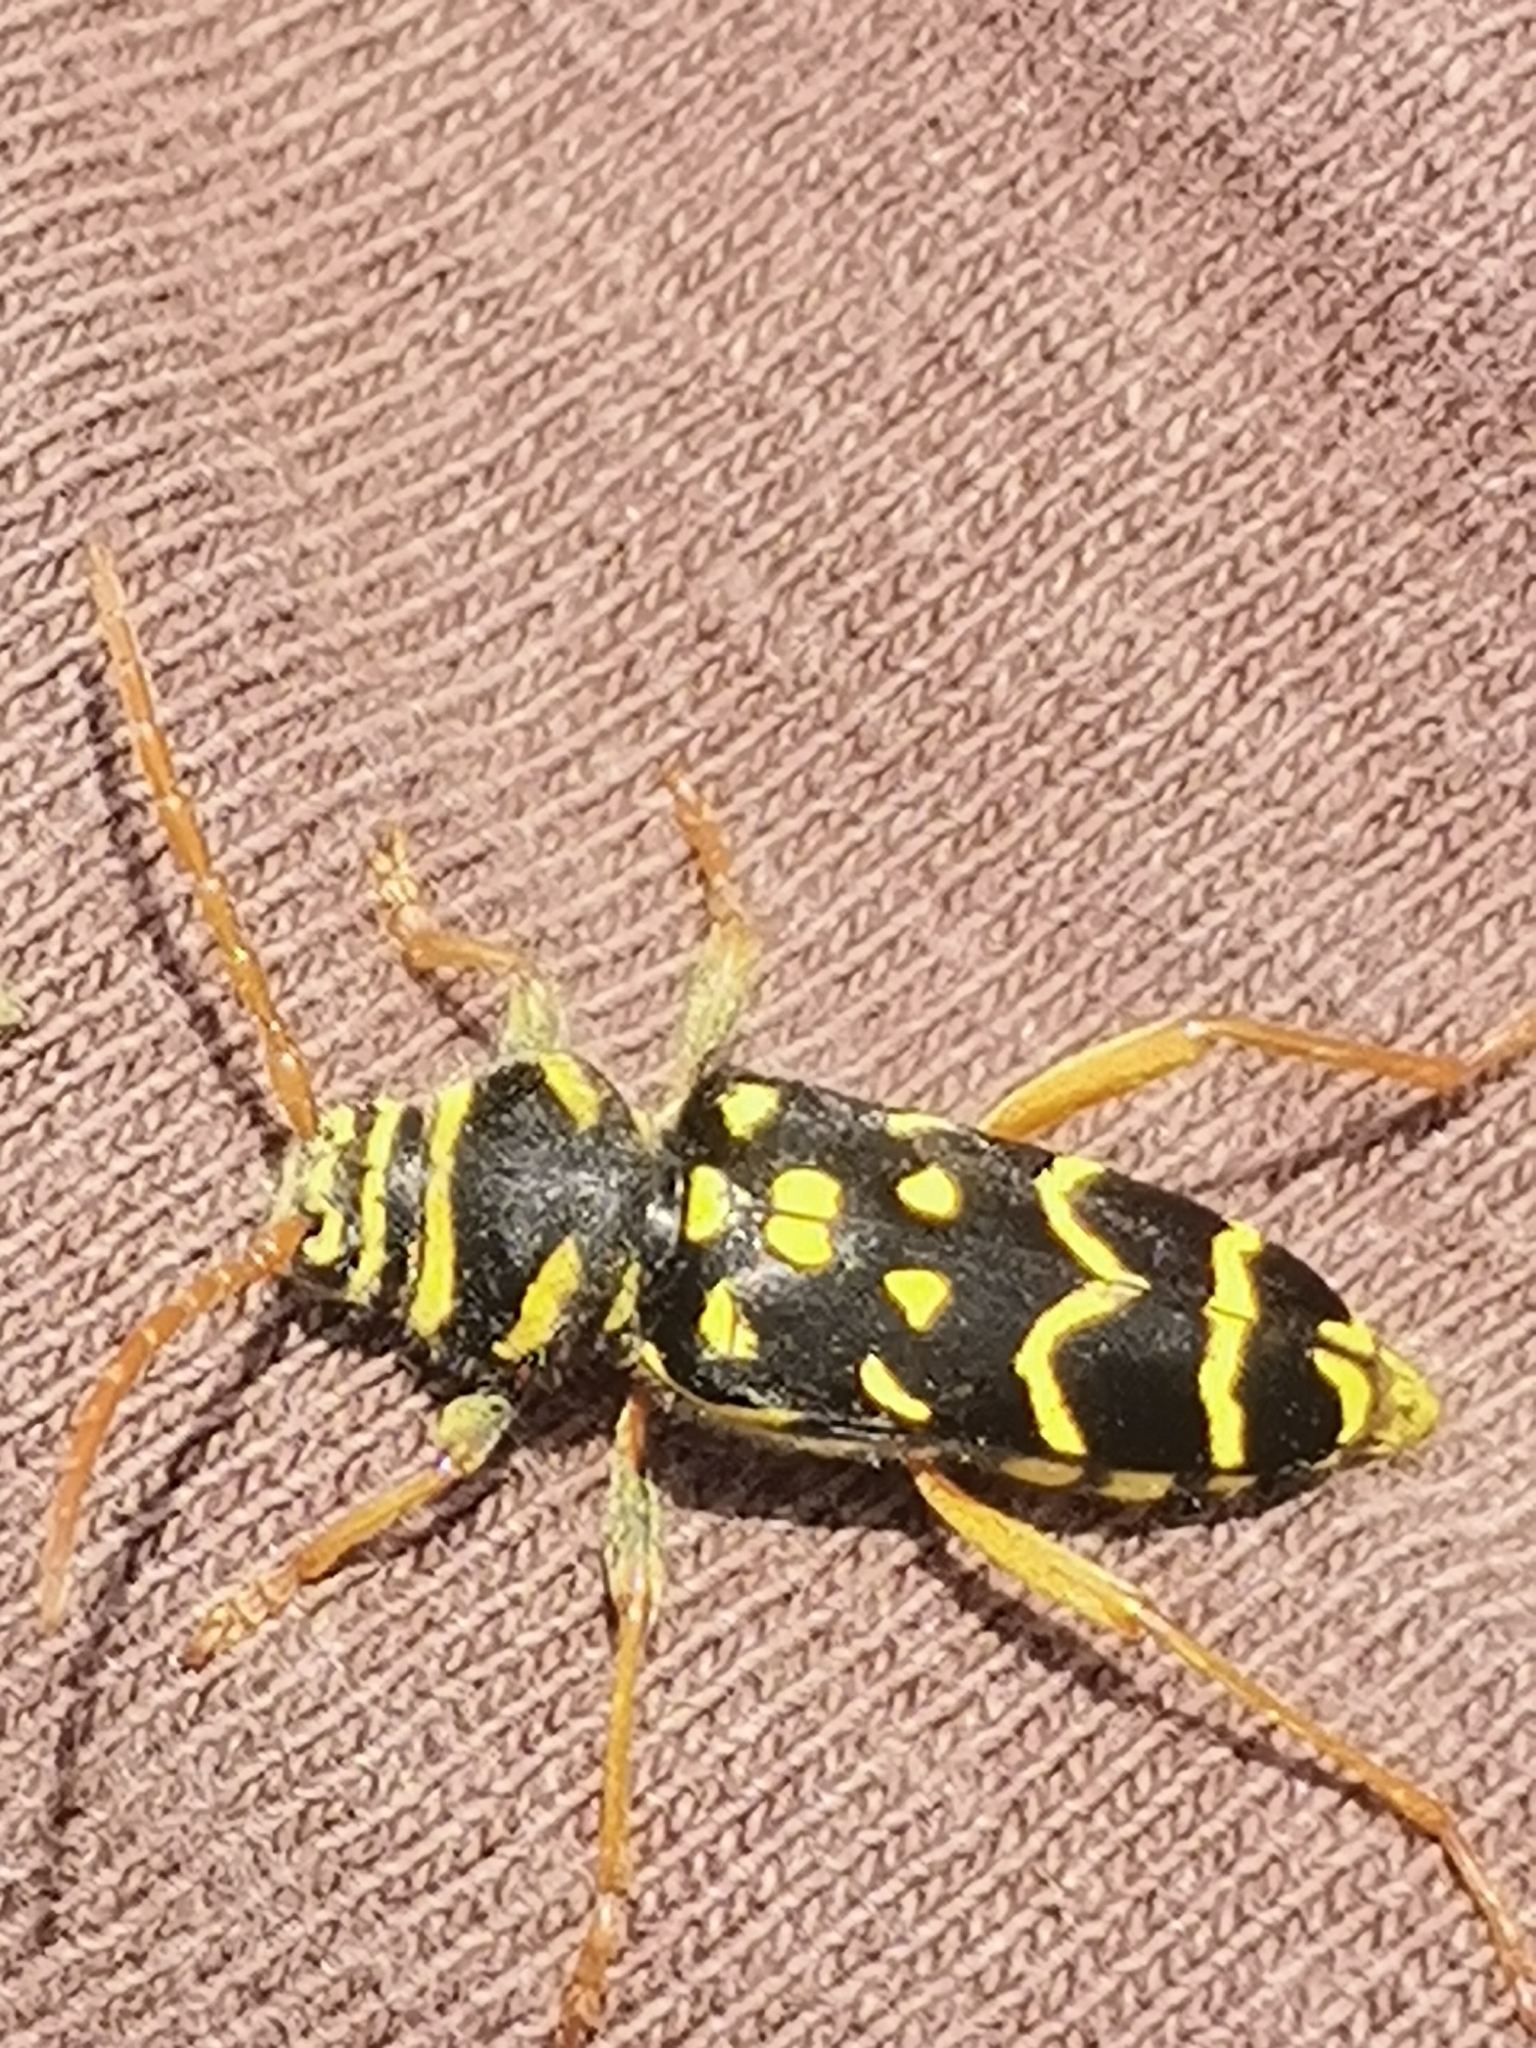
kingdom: Animalia
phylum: Arthropoda
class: Insecta
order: Coleoptera
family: Cerambycidae
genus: Plagionotus
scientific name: Plagionotus arcuatus
